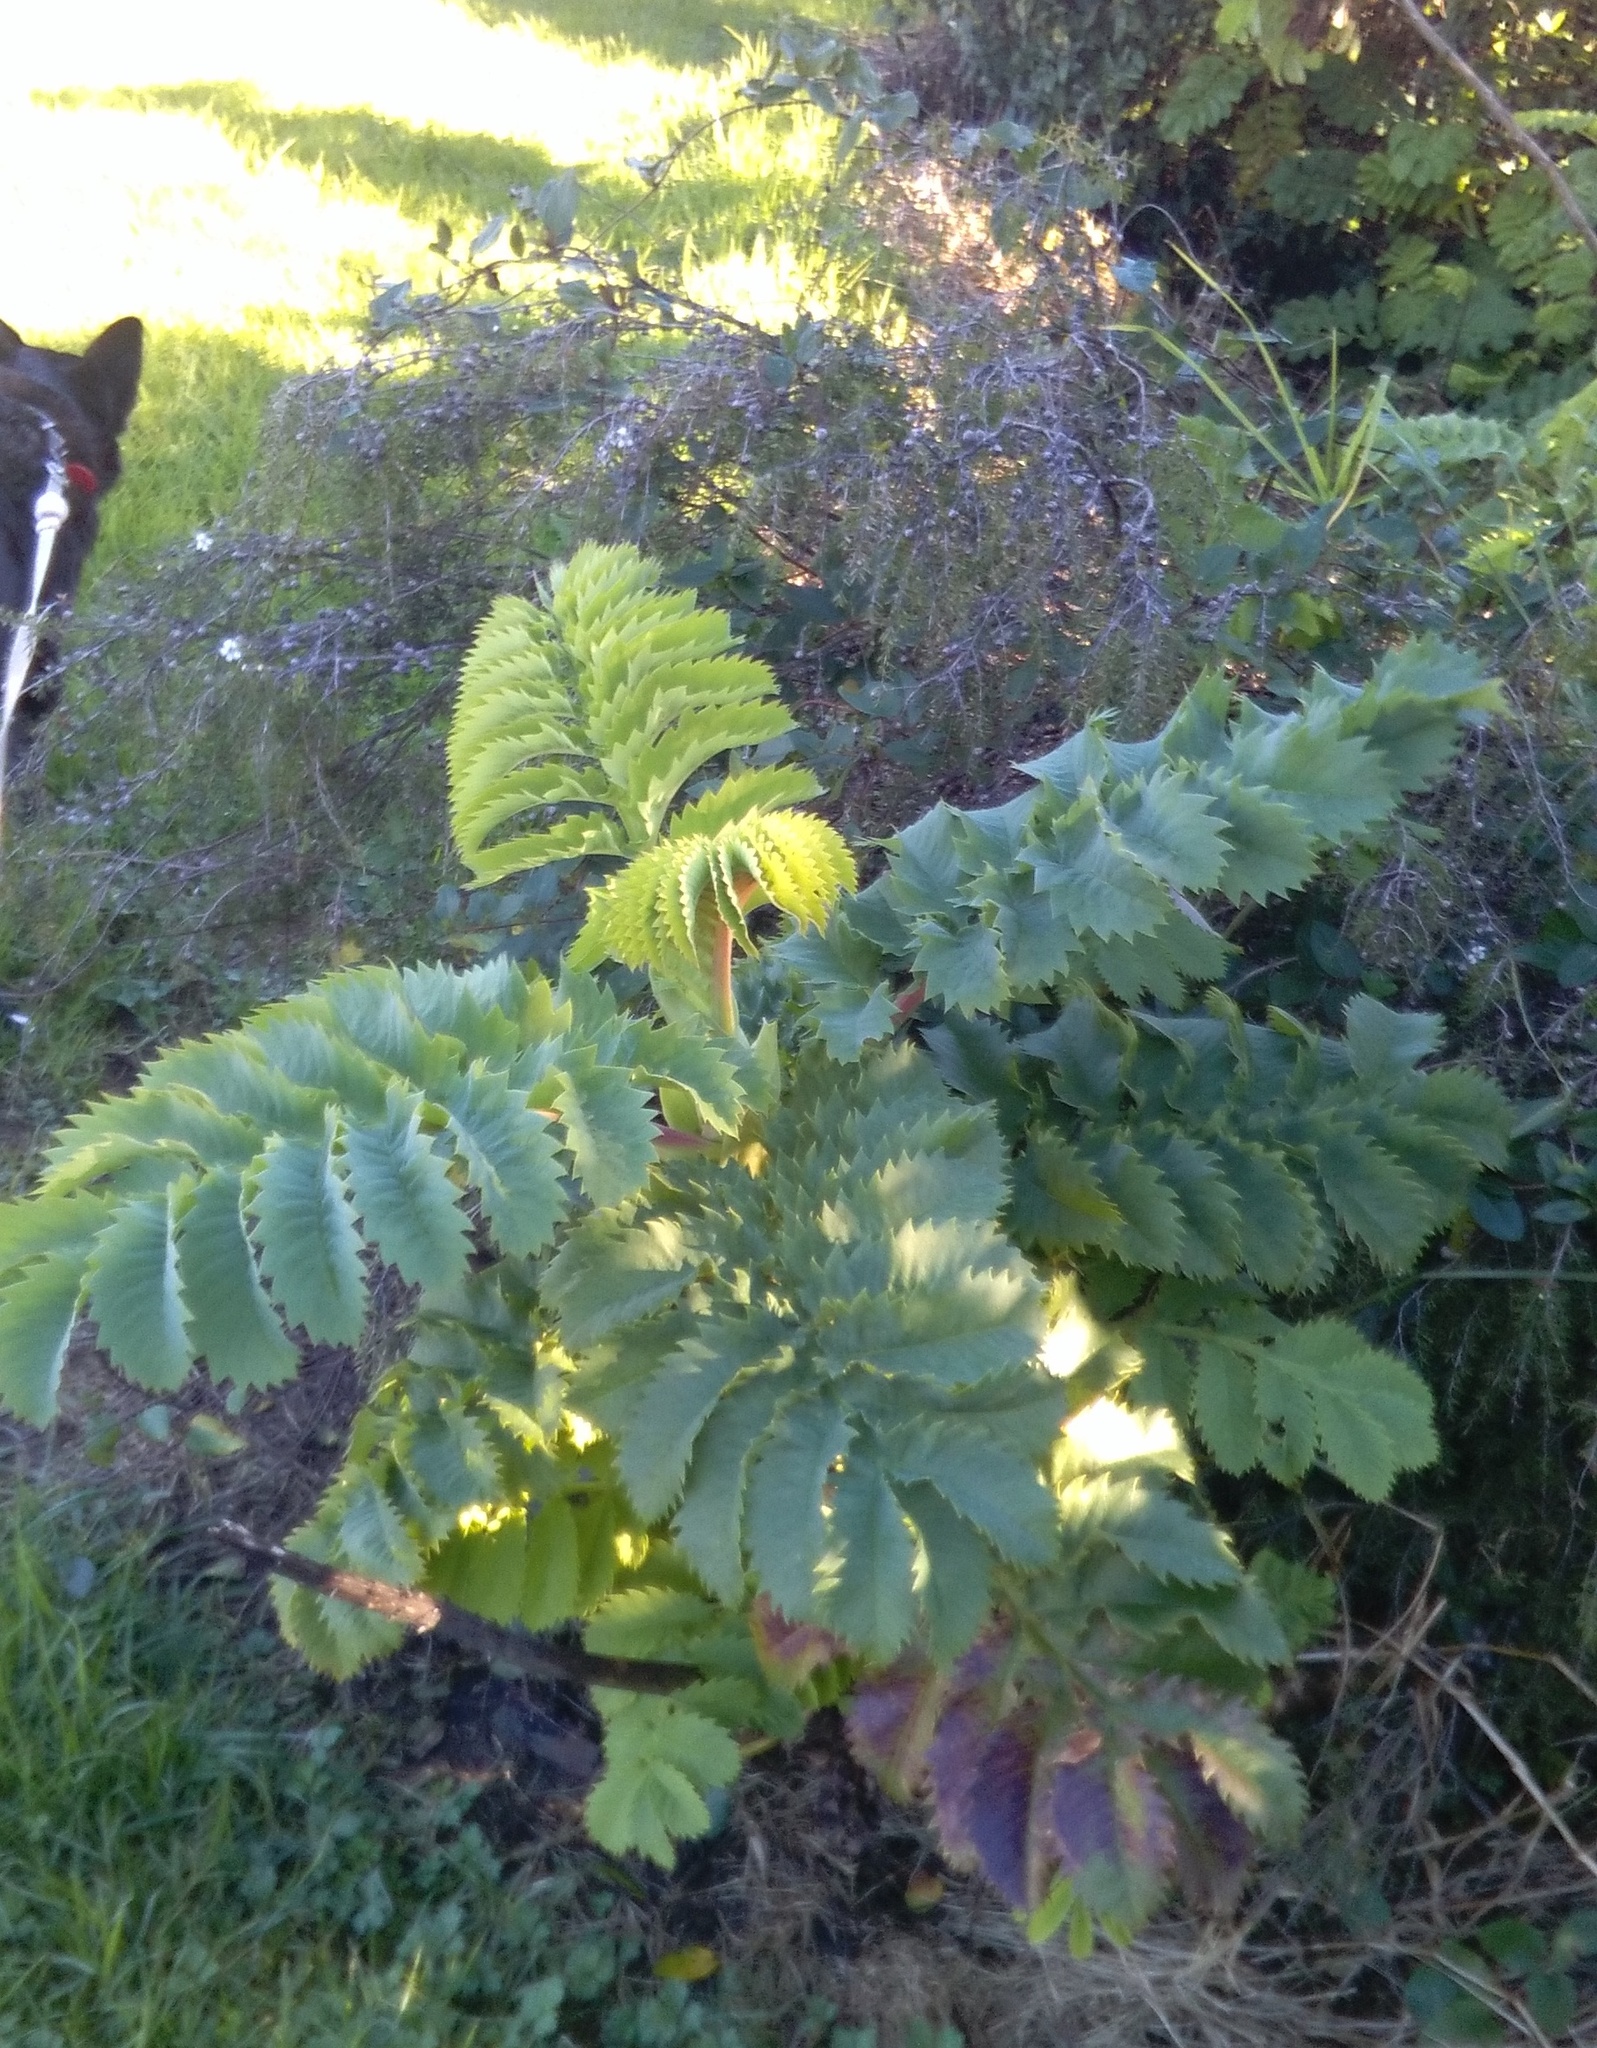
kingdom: Plantae
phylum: Tracheophyta
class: Magnoliopsida
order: Geraniales
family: Melianthaceae
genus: Melianthus
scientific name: Melianthus major
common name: Honey-flower
